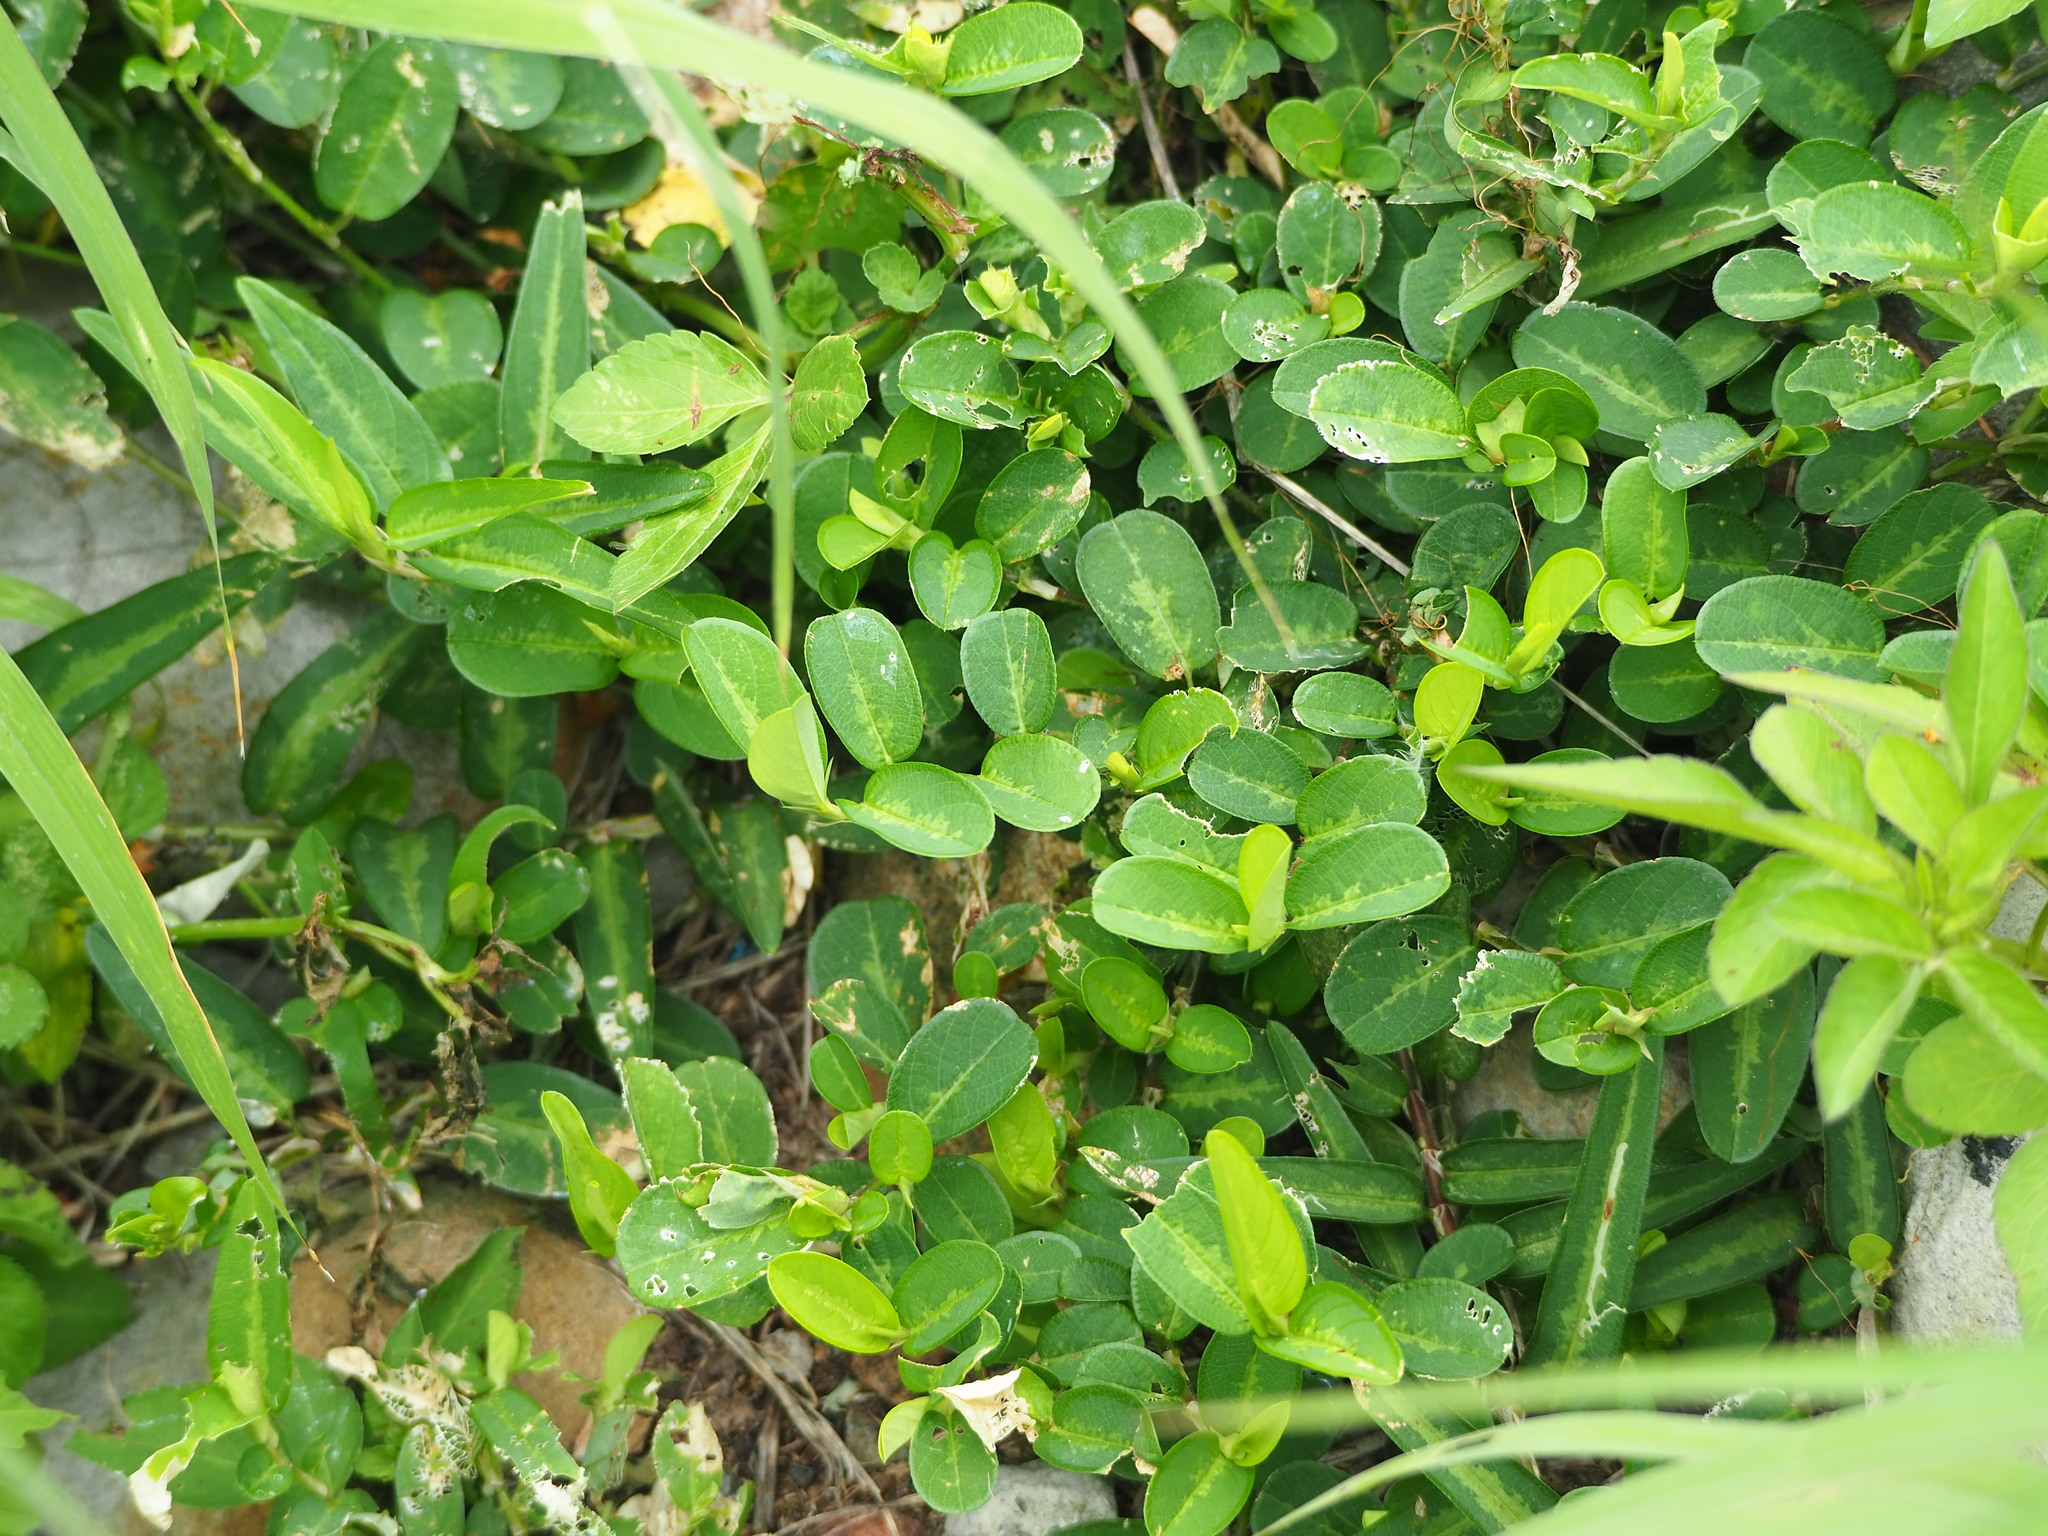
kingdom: Plantae
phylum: Tracheophyta
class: Magnoliopsida
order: Fabales
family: Fabaceae
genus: Alysicarpus
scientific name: Alysicarpus ovalifolius
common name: Alyce clover
